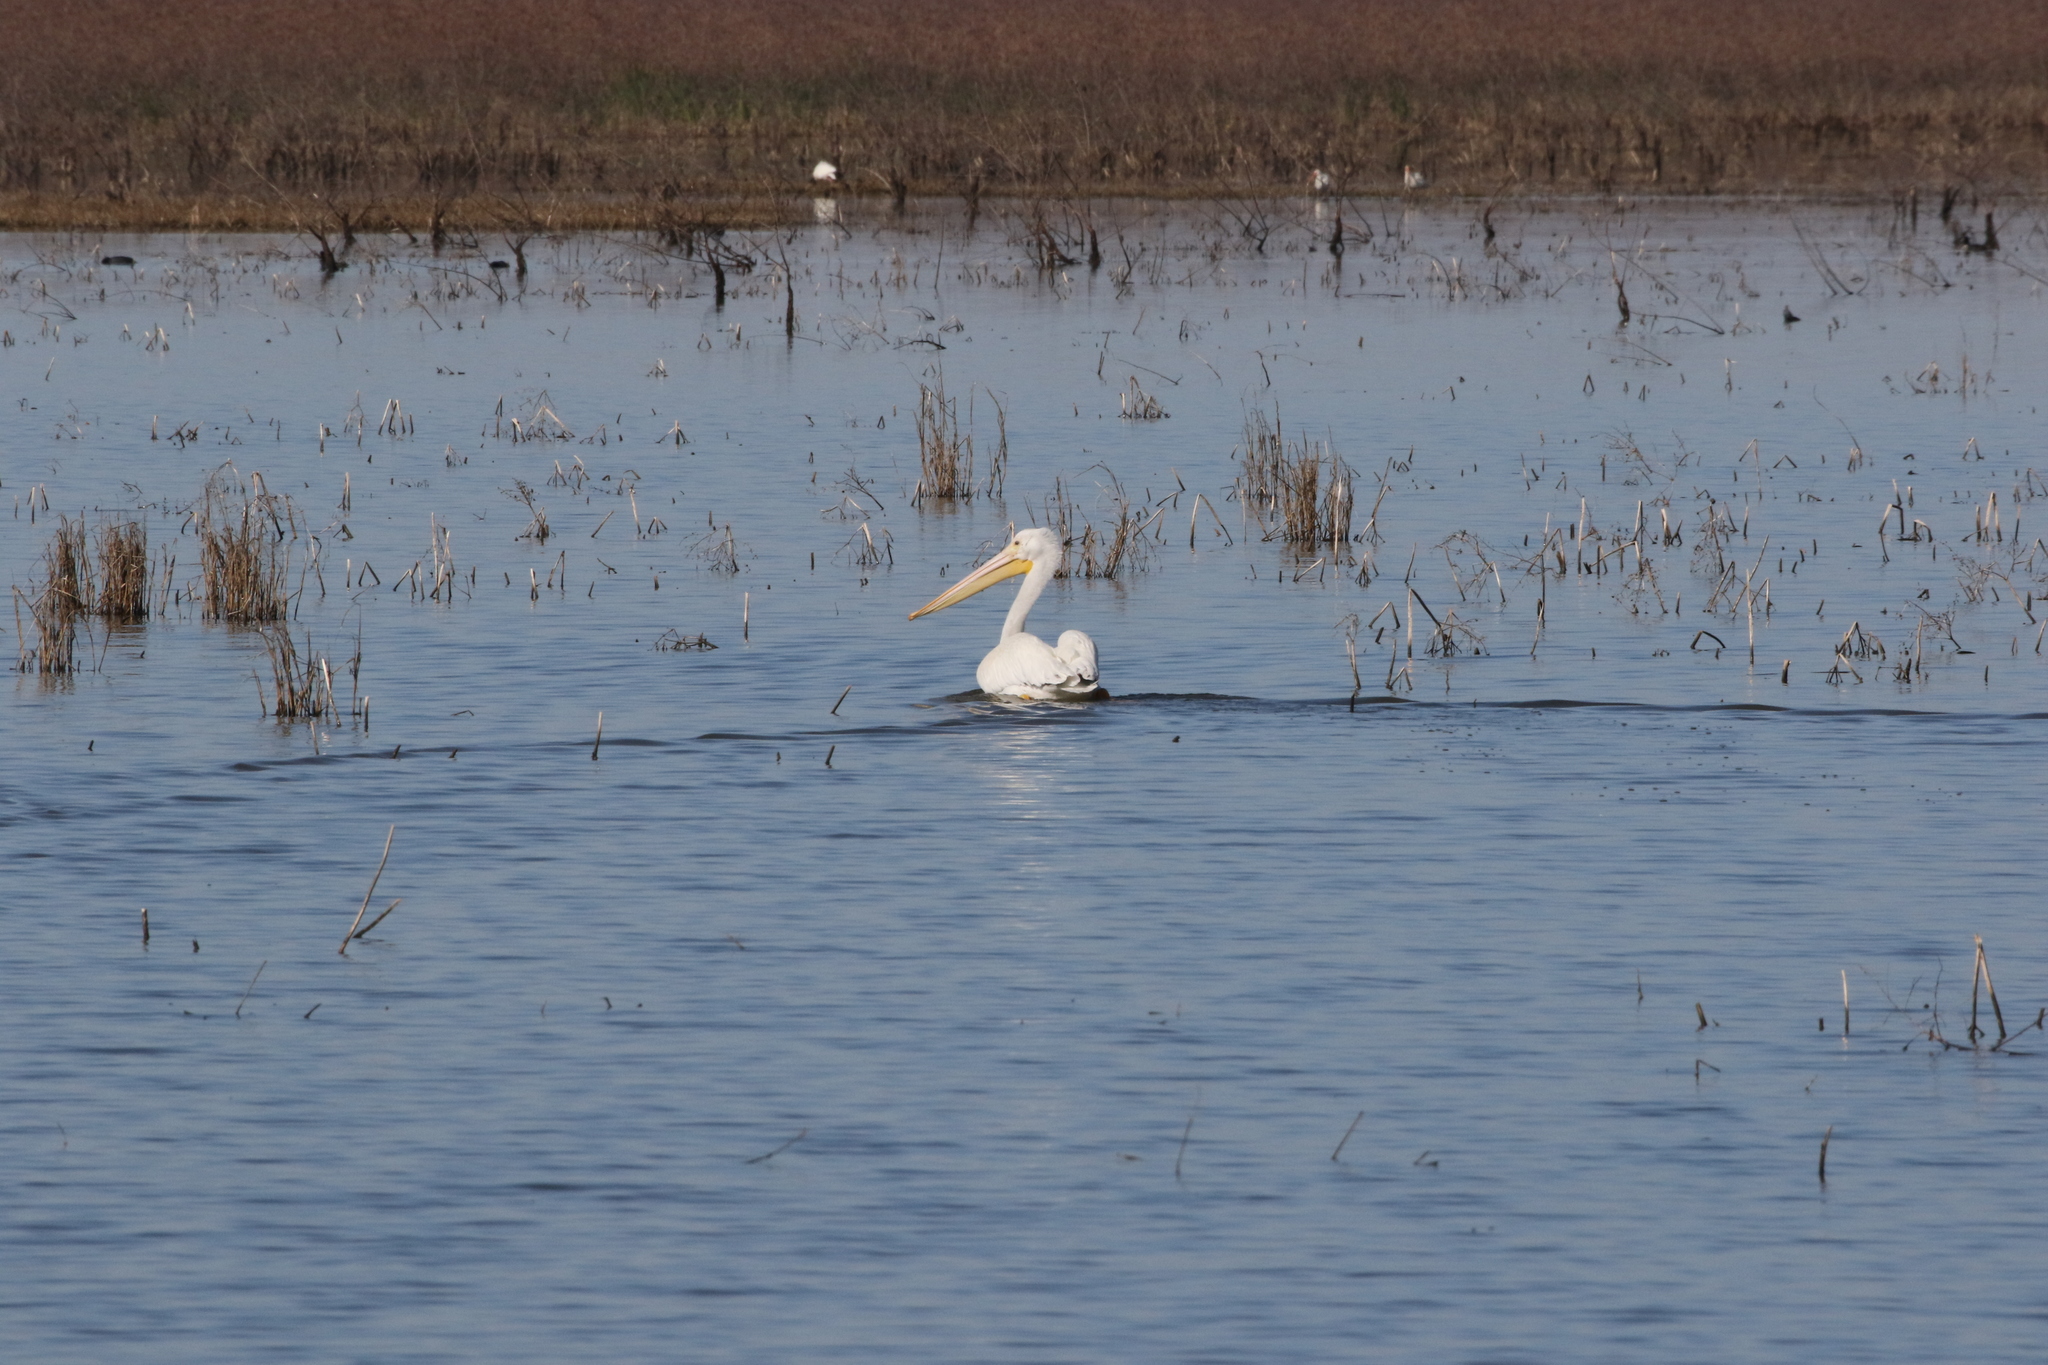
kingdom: Animalia
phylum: Chordata
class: Aves
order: Pelecaniformes
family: Pelecanidae
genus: Pelecanus
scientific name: Pelecanus erythrorhynchos
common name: American white pelican
